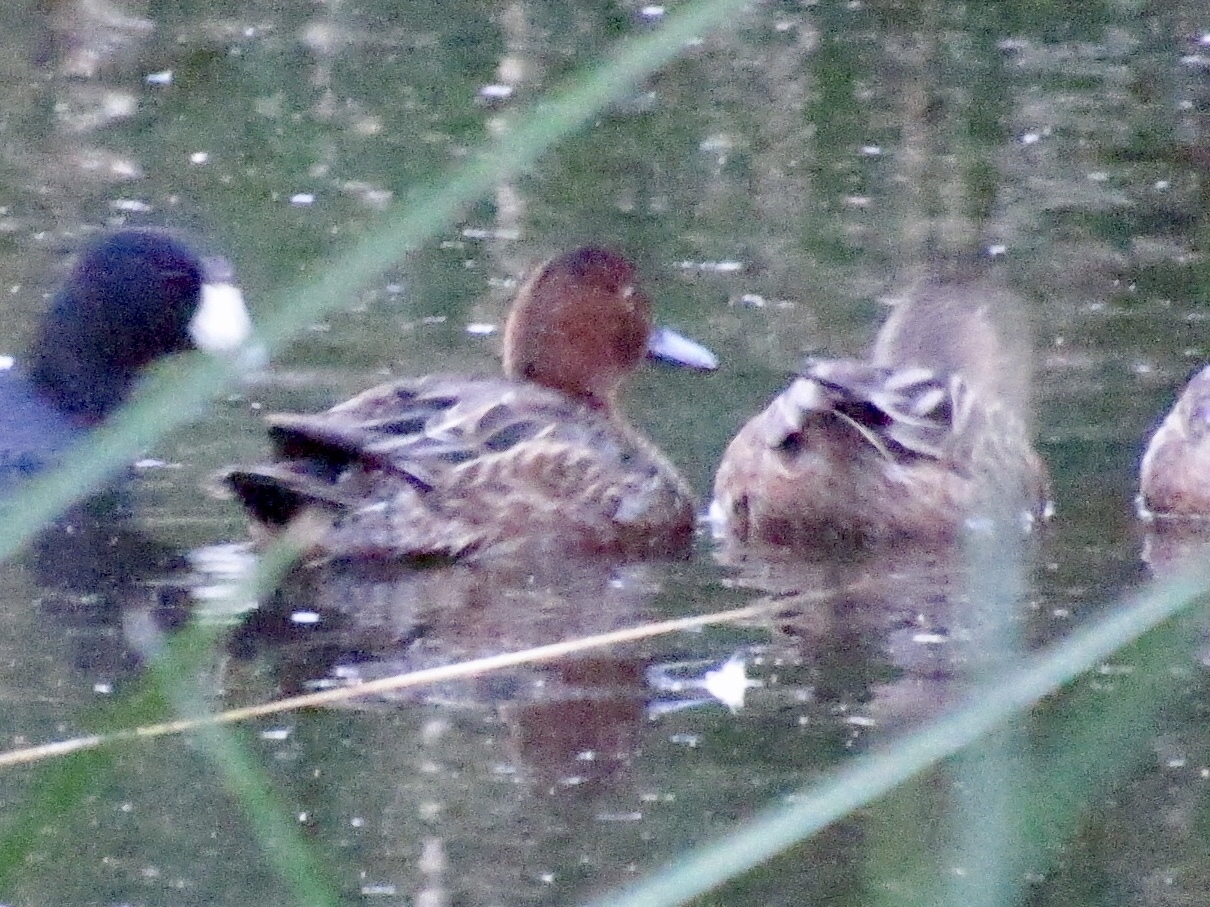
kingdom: Animalia
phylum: Chordata
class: Aves
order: Anseriformes
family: Anatidae
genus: Spatula
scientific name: Spatula cyanoptera
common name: Cinnamon teal
